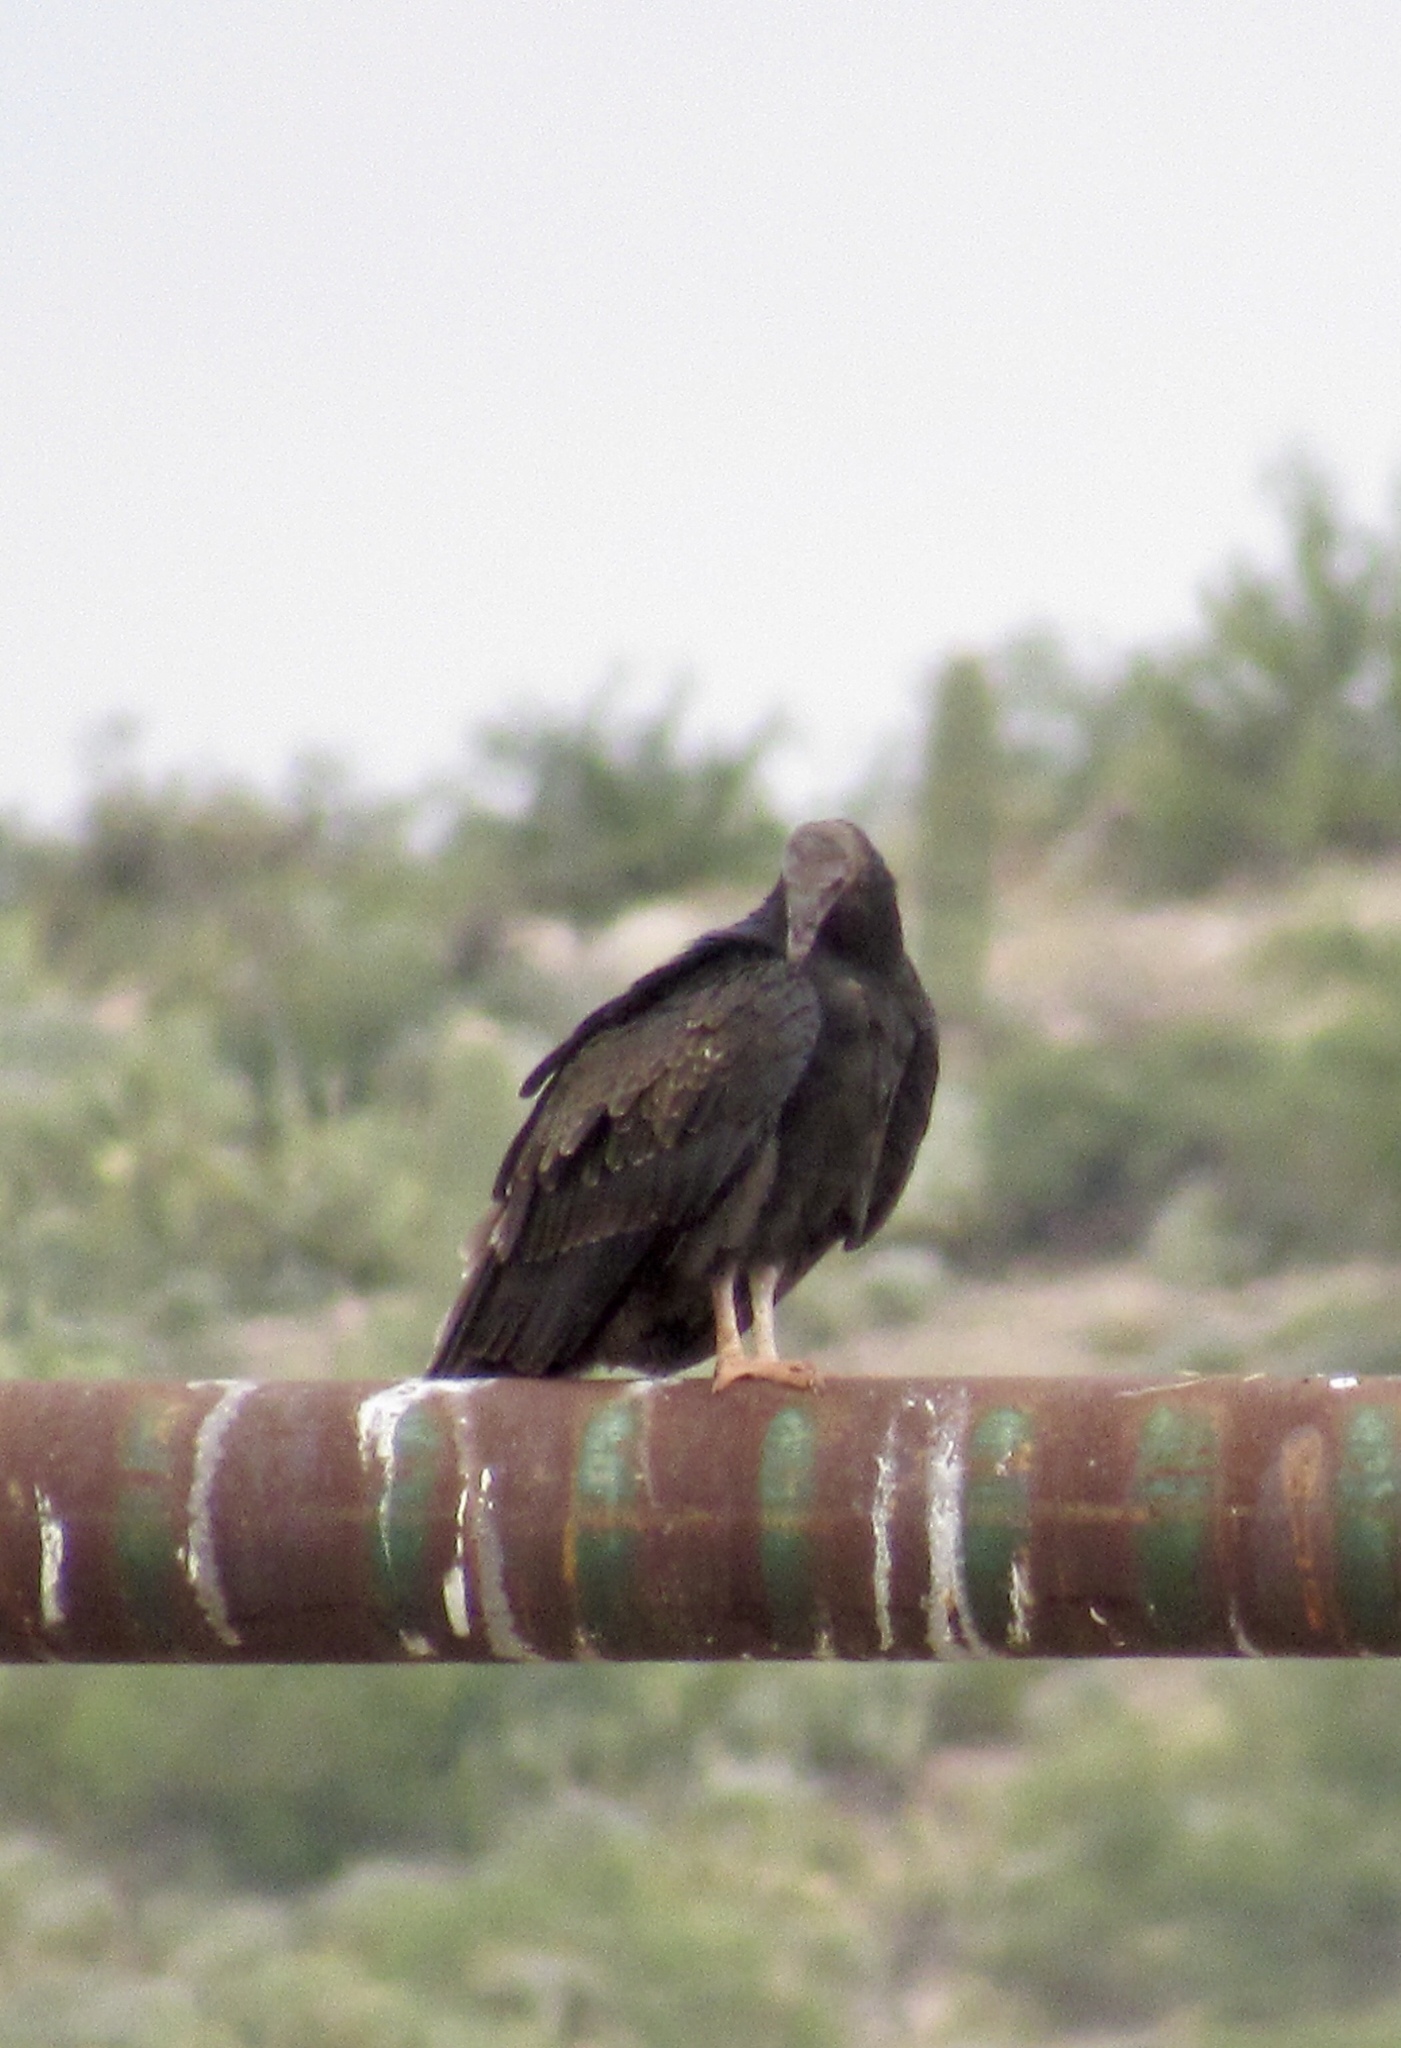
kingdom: Animalia
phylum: Chordata
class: Aves
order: Accipitriformes
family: Cathartidae
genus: Cathartes
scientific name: Cathartes aura
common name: Turkey vulture
